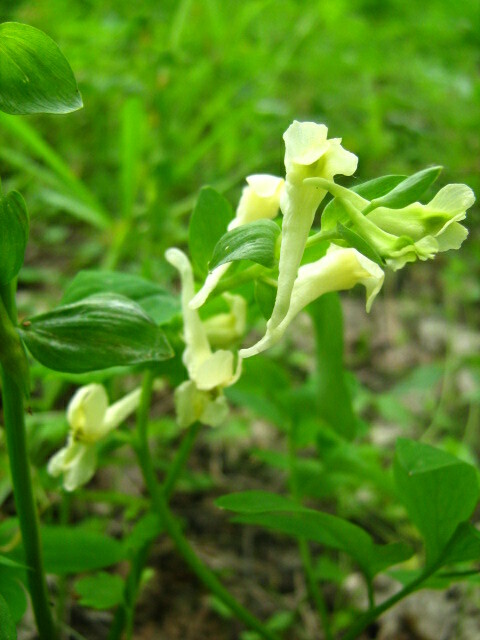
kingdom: Plantae
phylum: Tracheophyta
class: Magnoliopsida
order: Ranunculales
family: Papaveraceae
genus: Corydalis
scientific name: Corydalis cava
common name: Hollowroot
